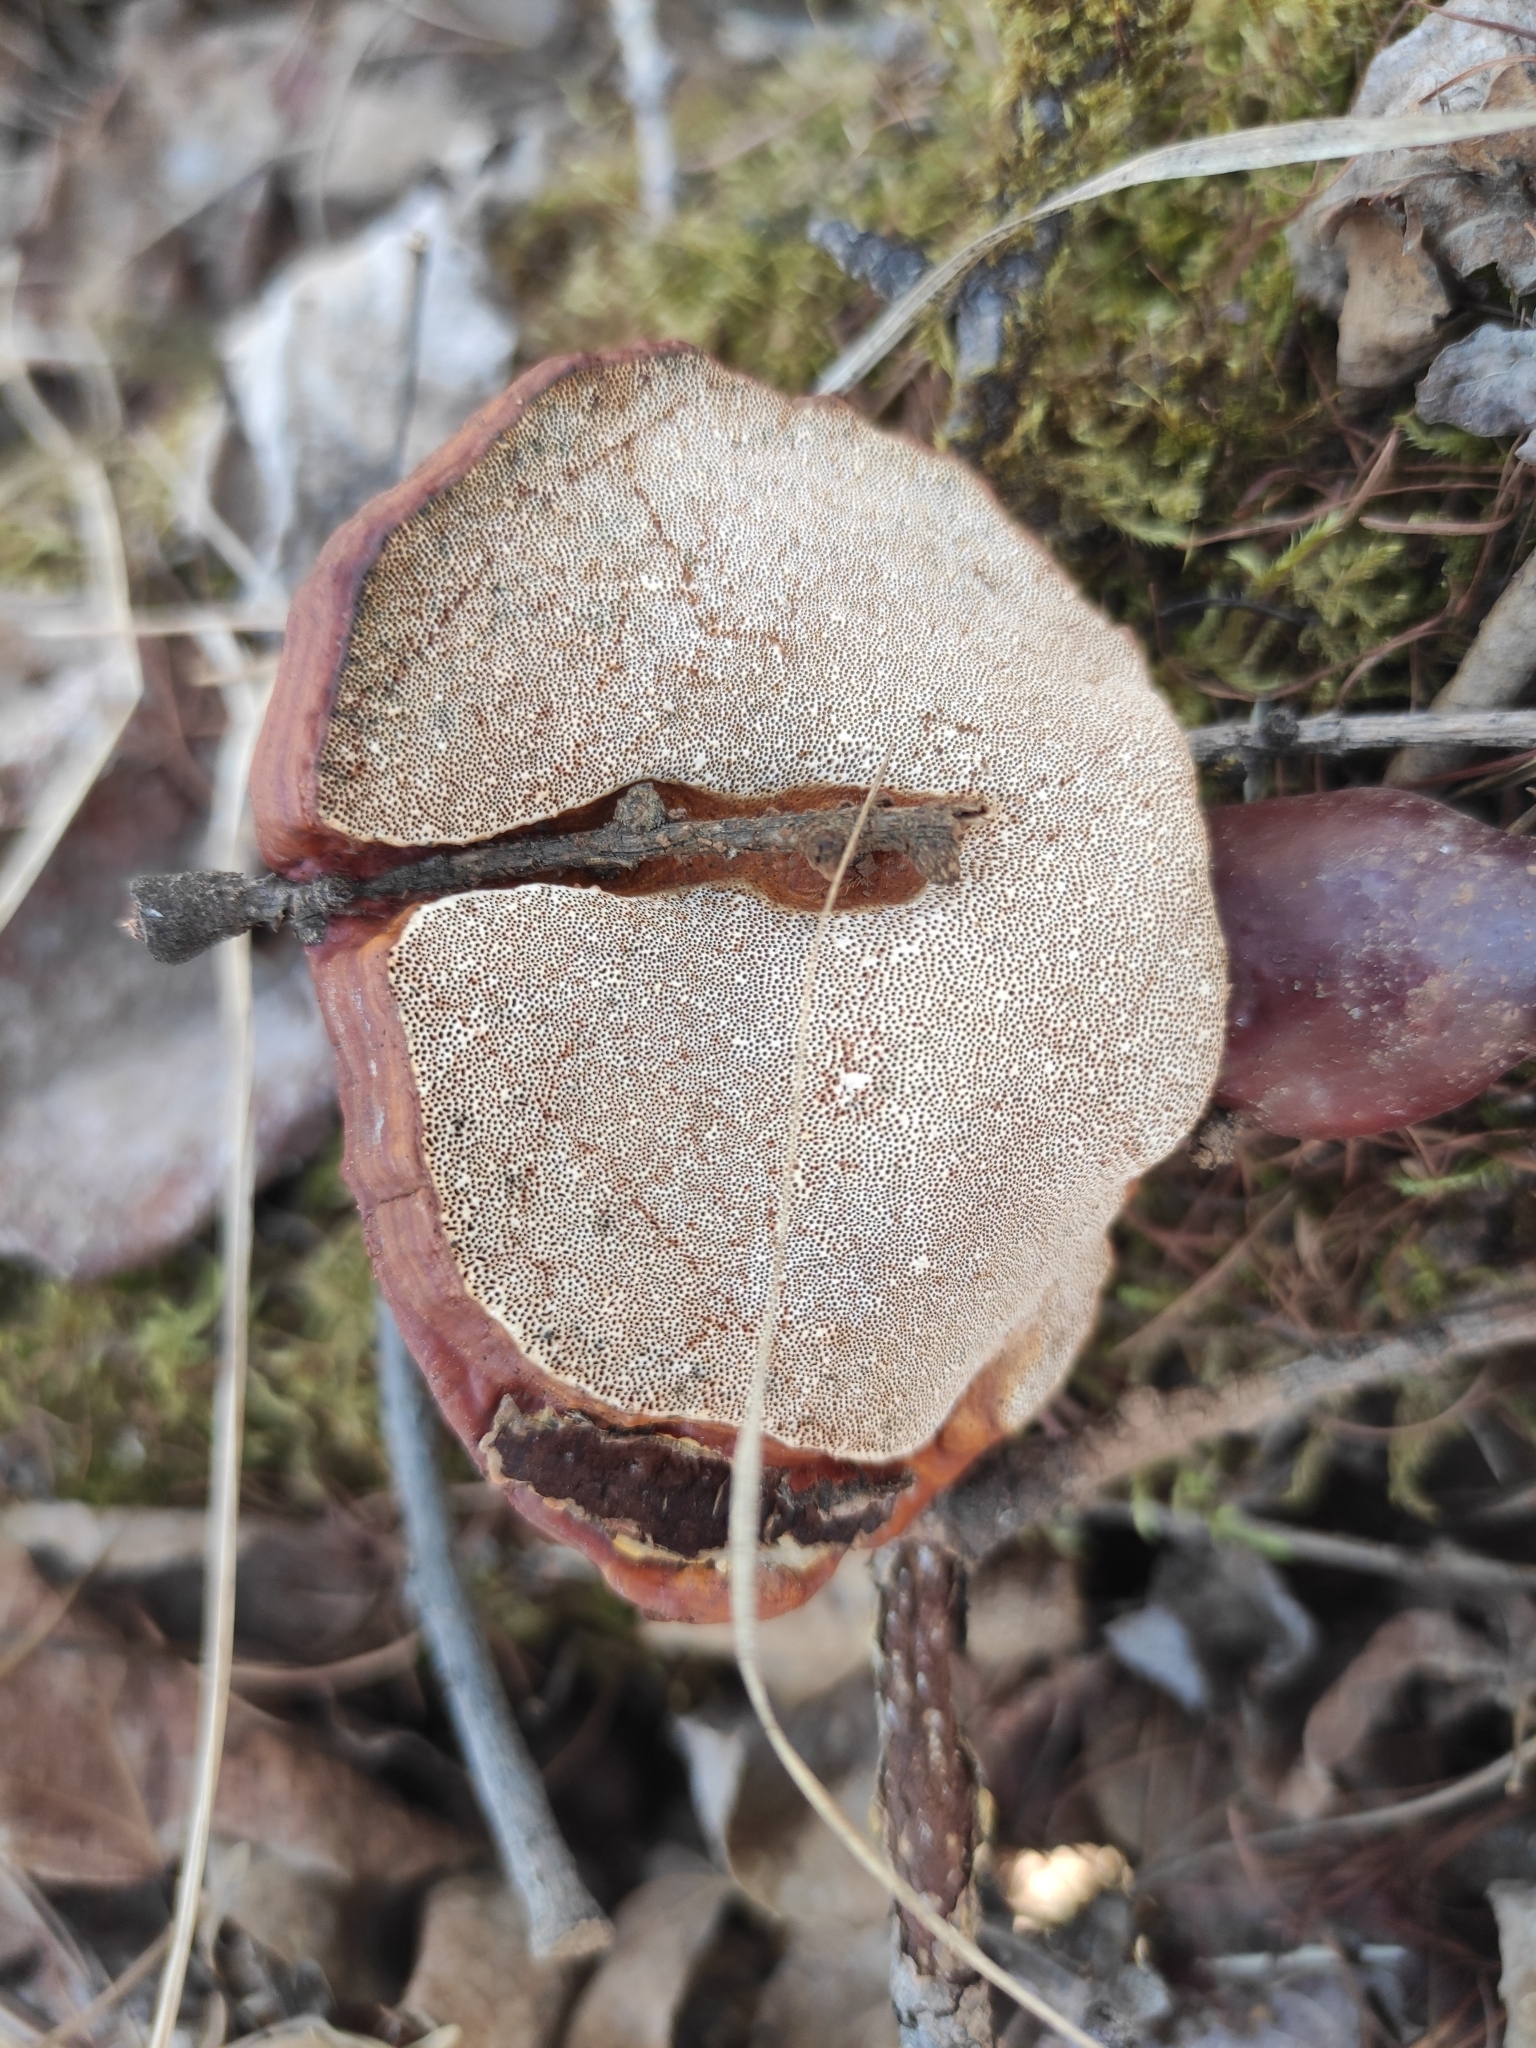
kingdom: Fungi
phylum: Basidiomycota
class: Agaricomycetes
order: Polyporales
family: Polyporaceae
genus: Ganoderma
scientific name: Ganoderma lucidum
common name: Lacquered bracket
